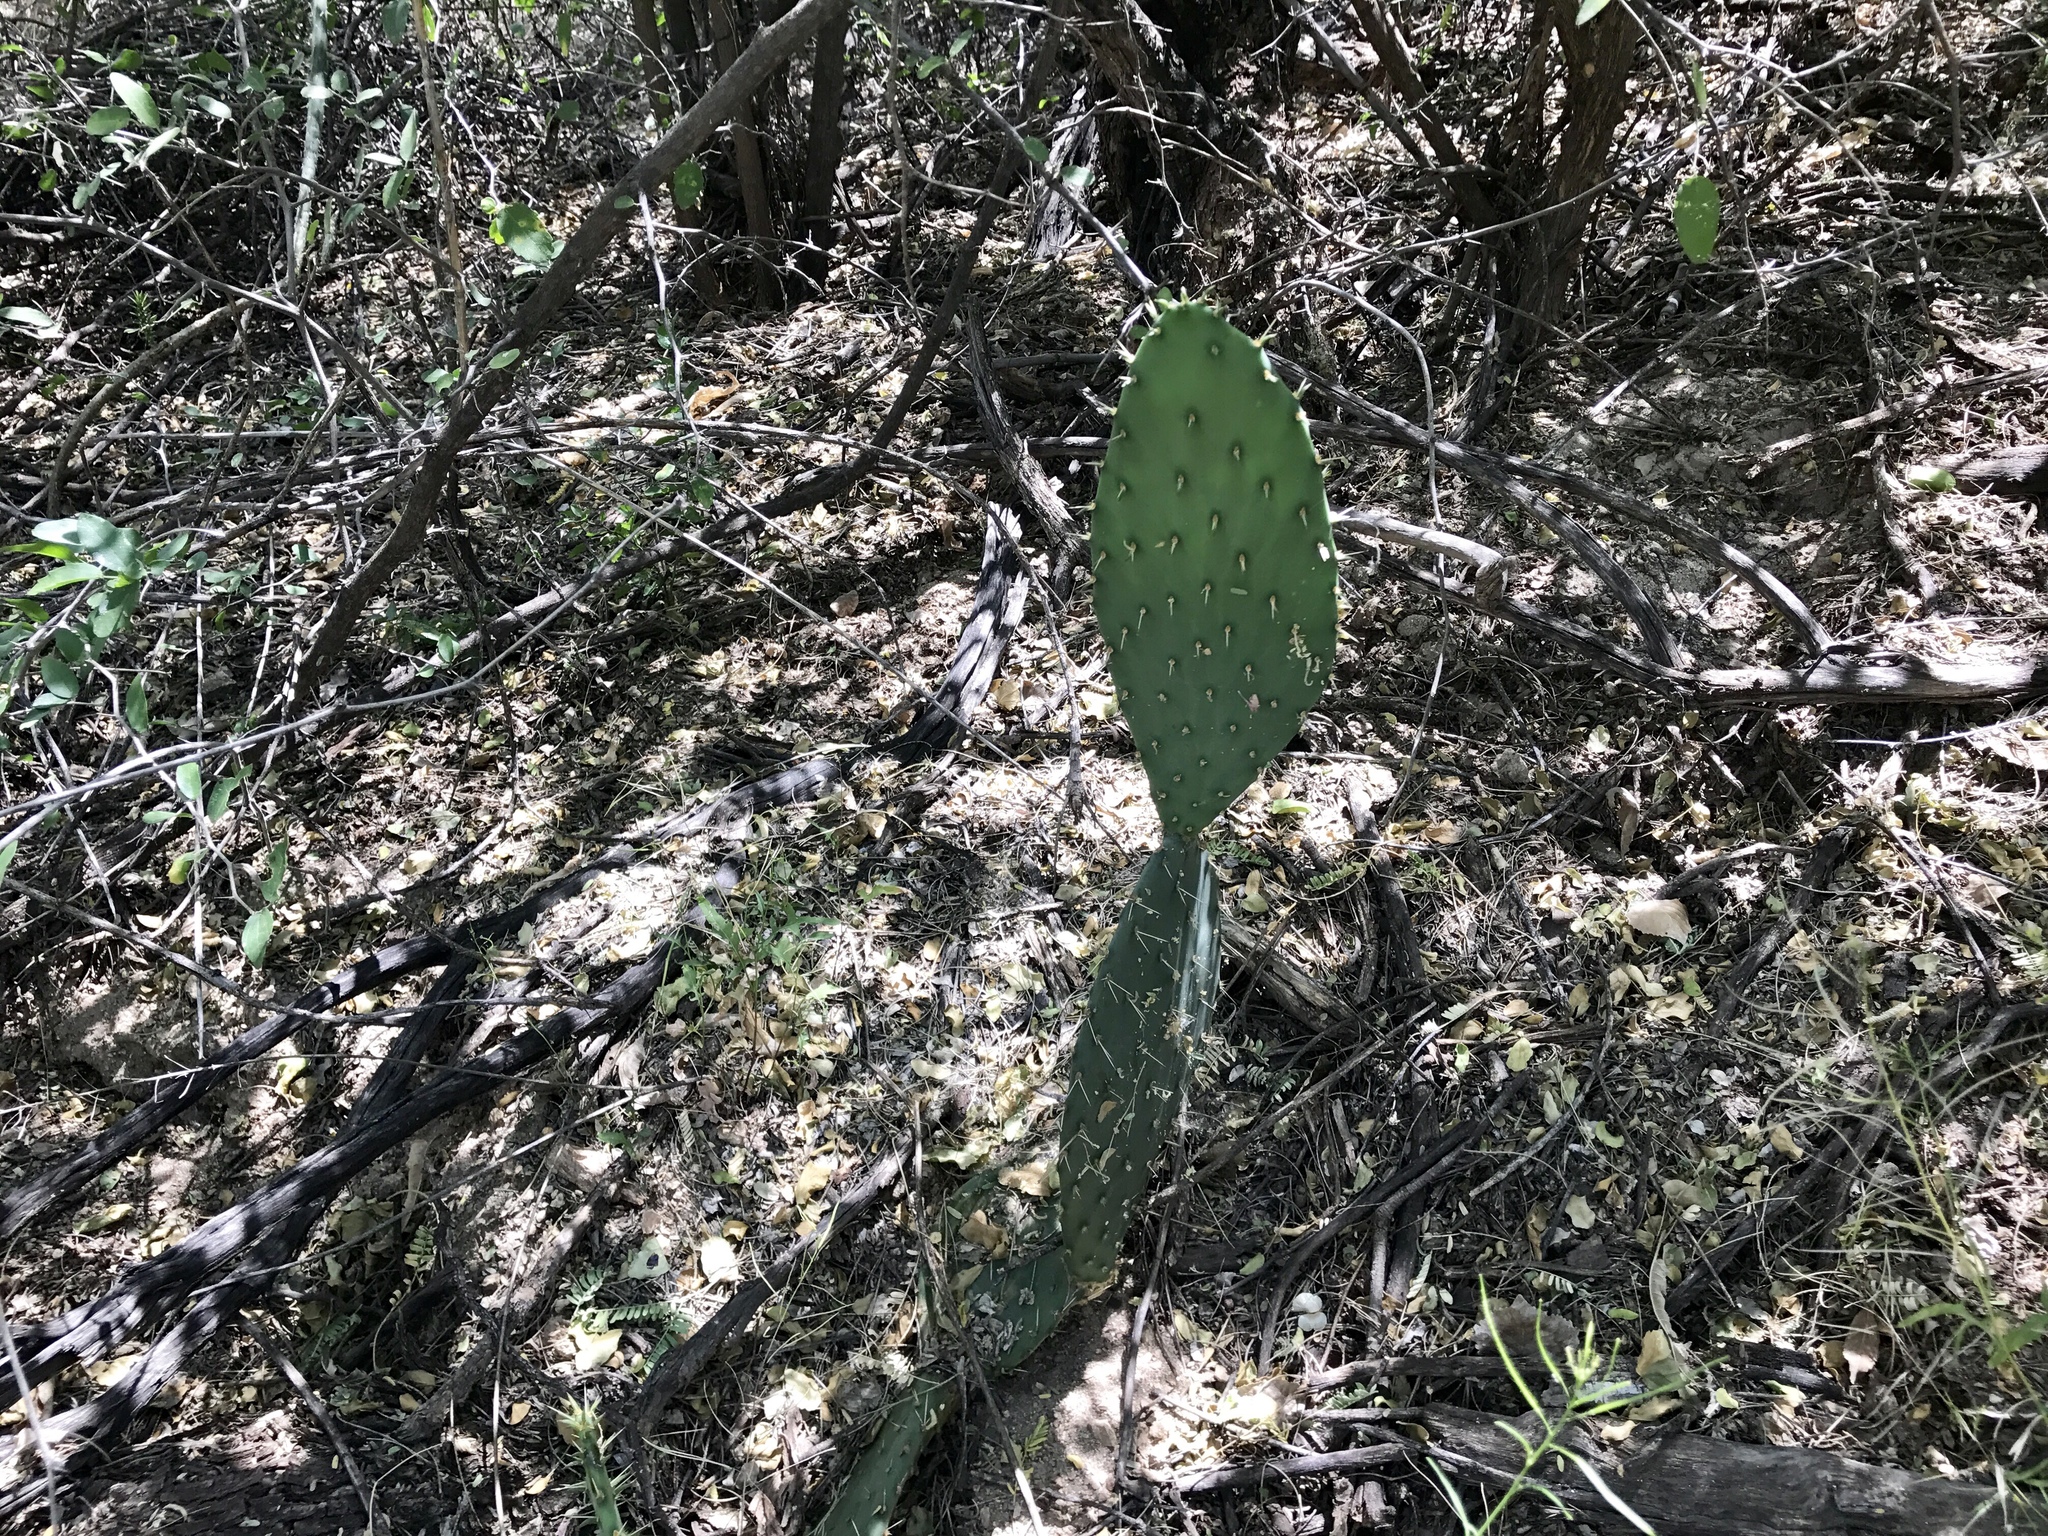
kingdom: Plantae
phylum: Tracheophyta
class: Magnoliopsida
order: Caryophyllales
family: Cactaceae
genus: Opuntia
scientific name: Opuntia engelmannii
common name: Cactus-apple
